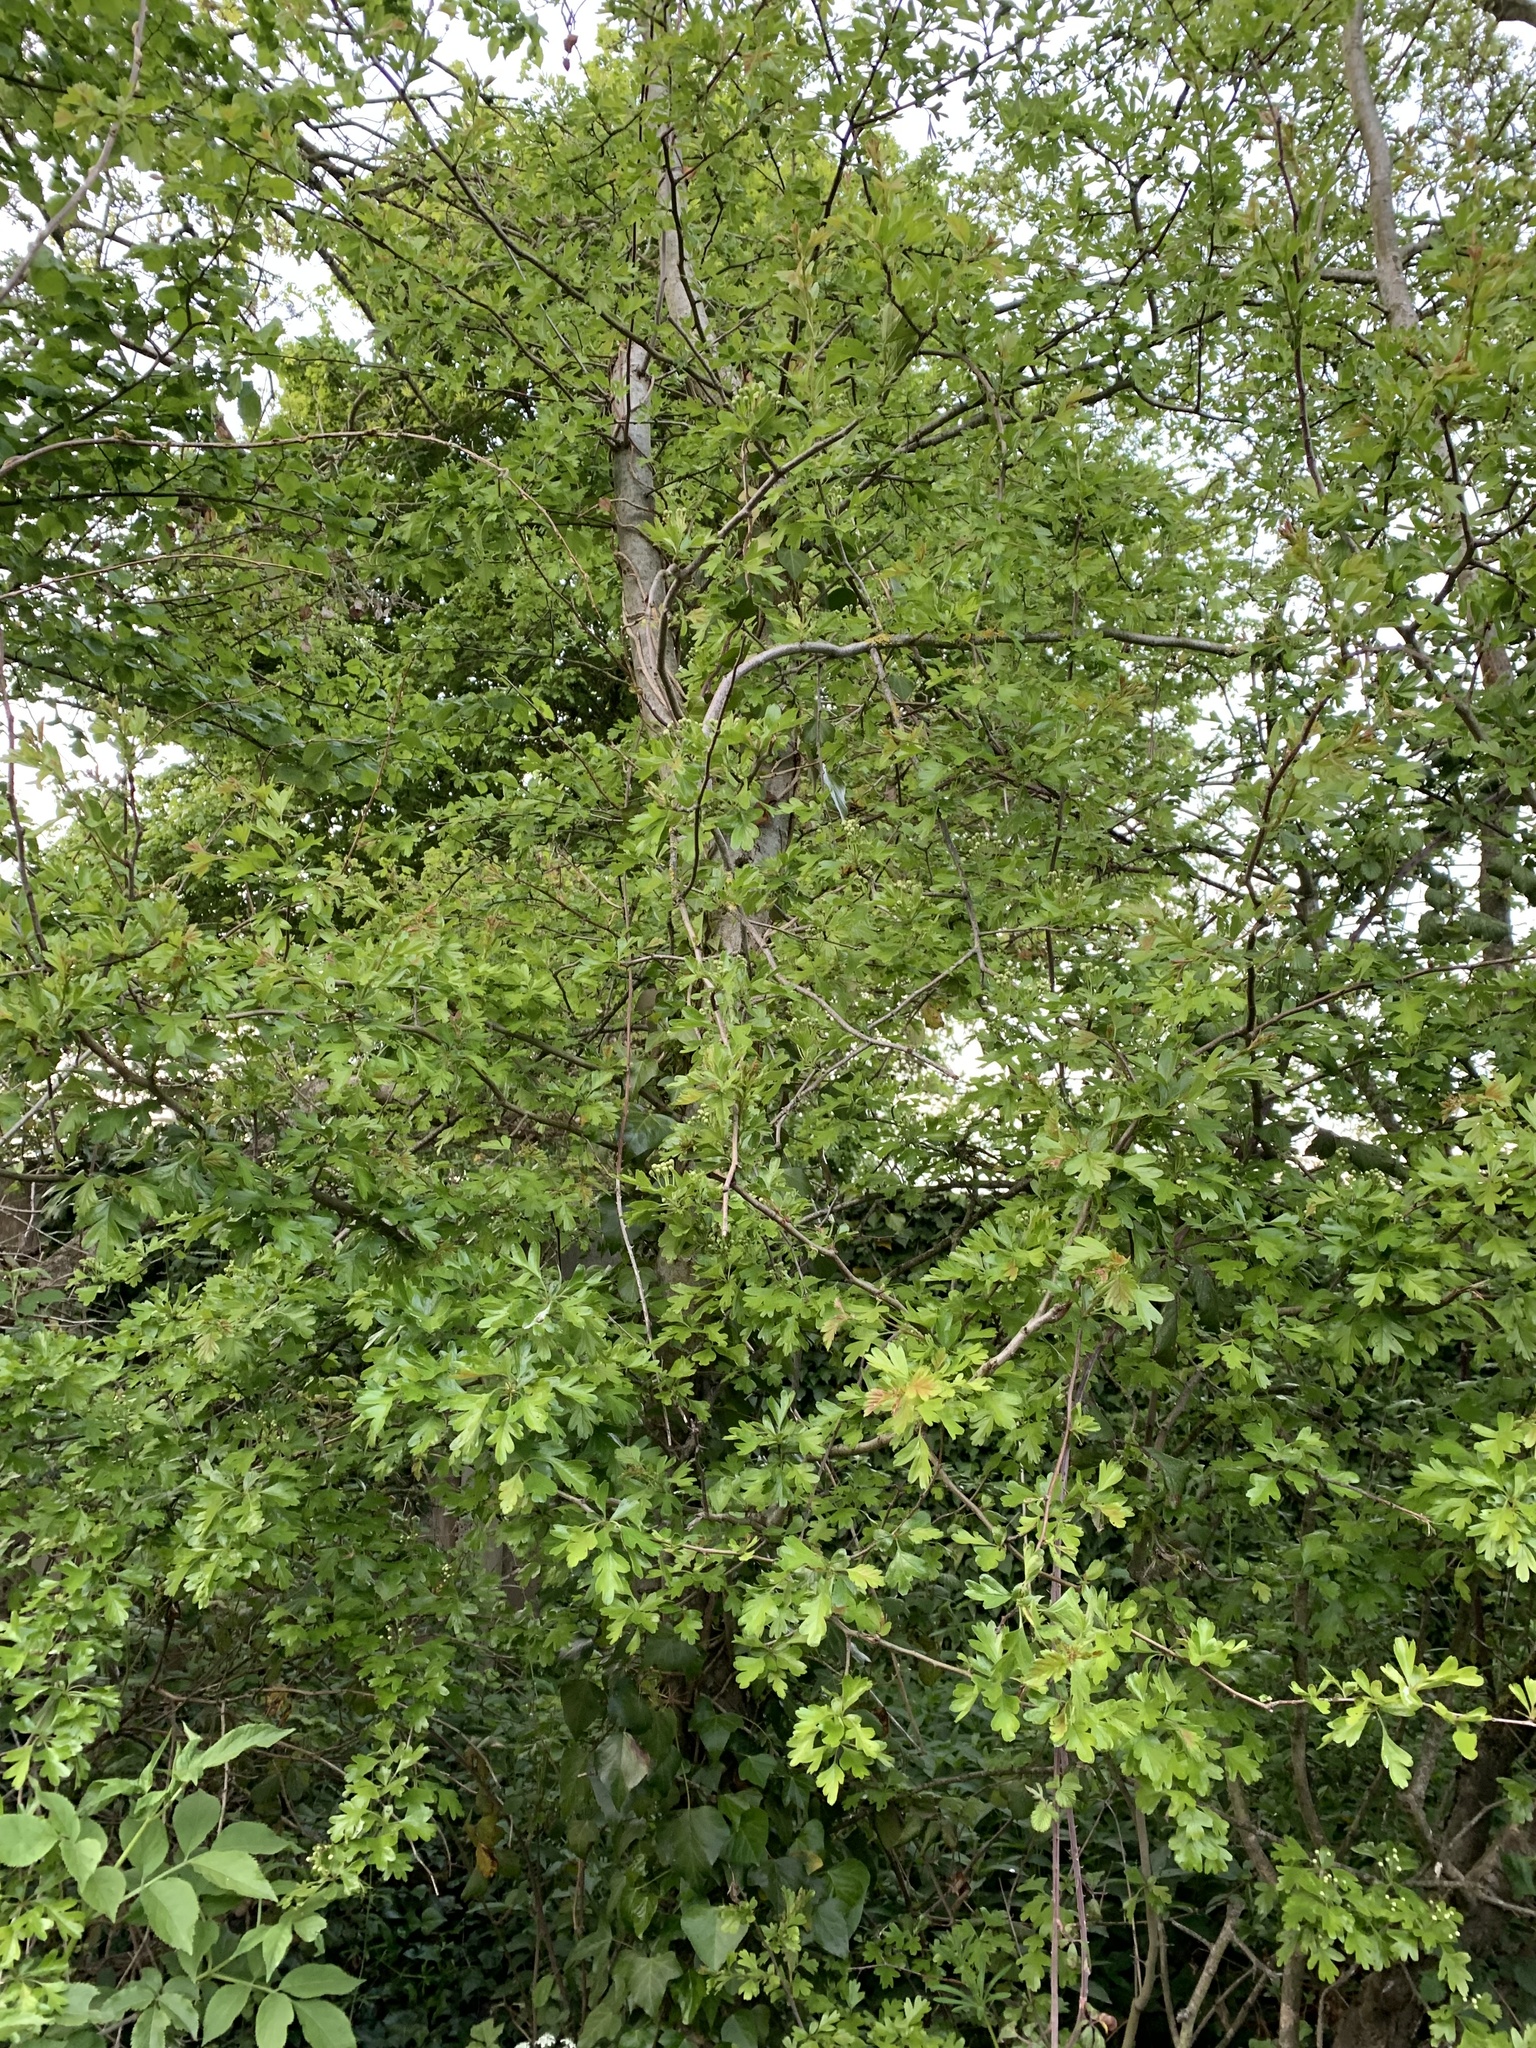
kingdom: Plantae
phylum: Tracheophyta
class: Magnoliopsida
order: Rosales
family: Rosaceae
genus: Crataegus
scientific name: Crataegus monogyna
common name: Hawthorn
